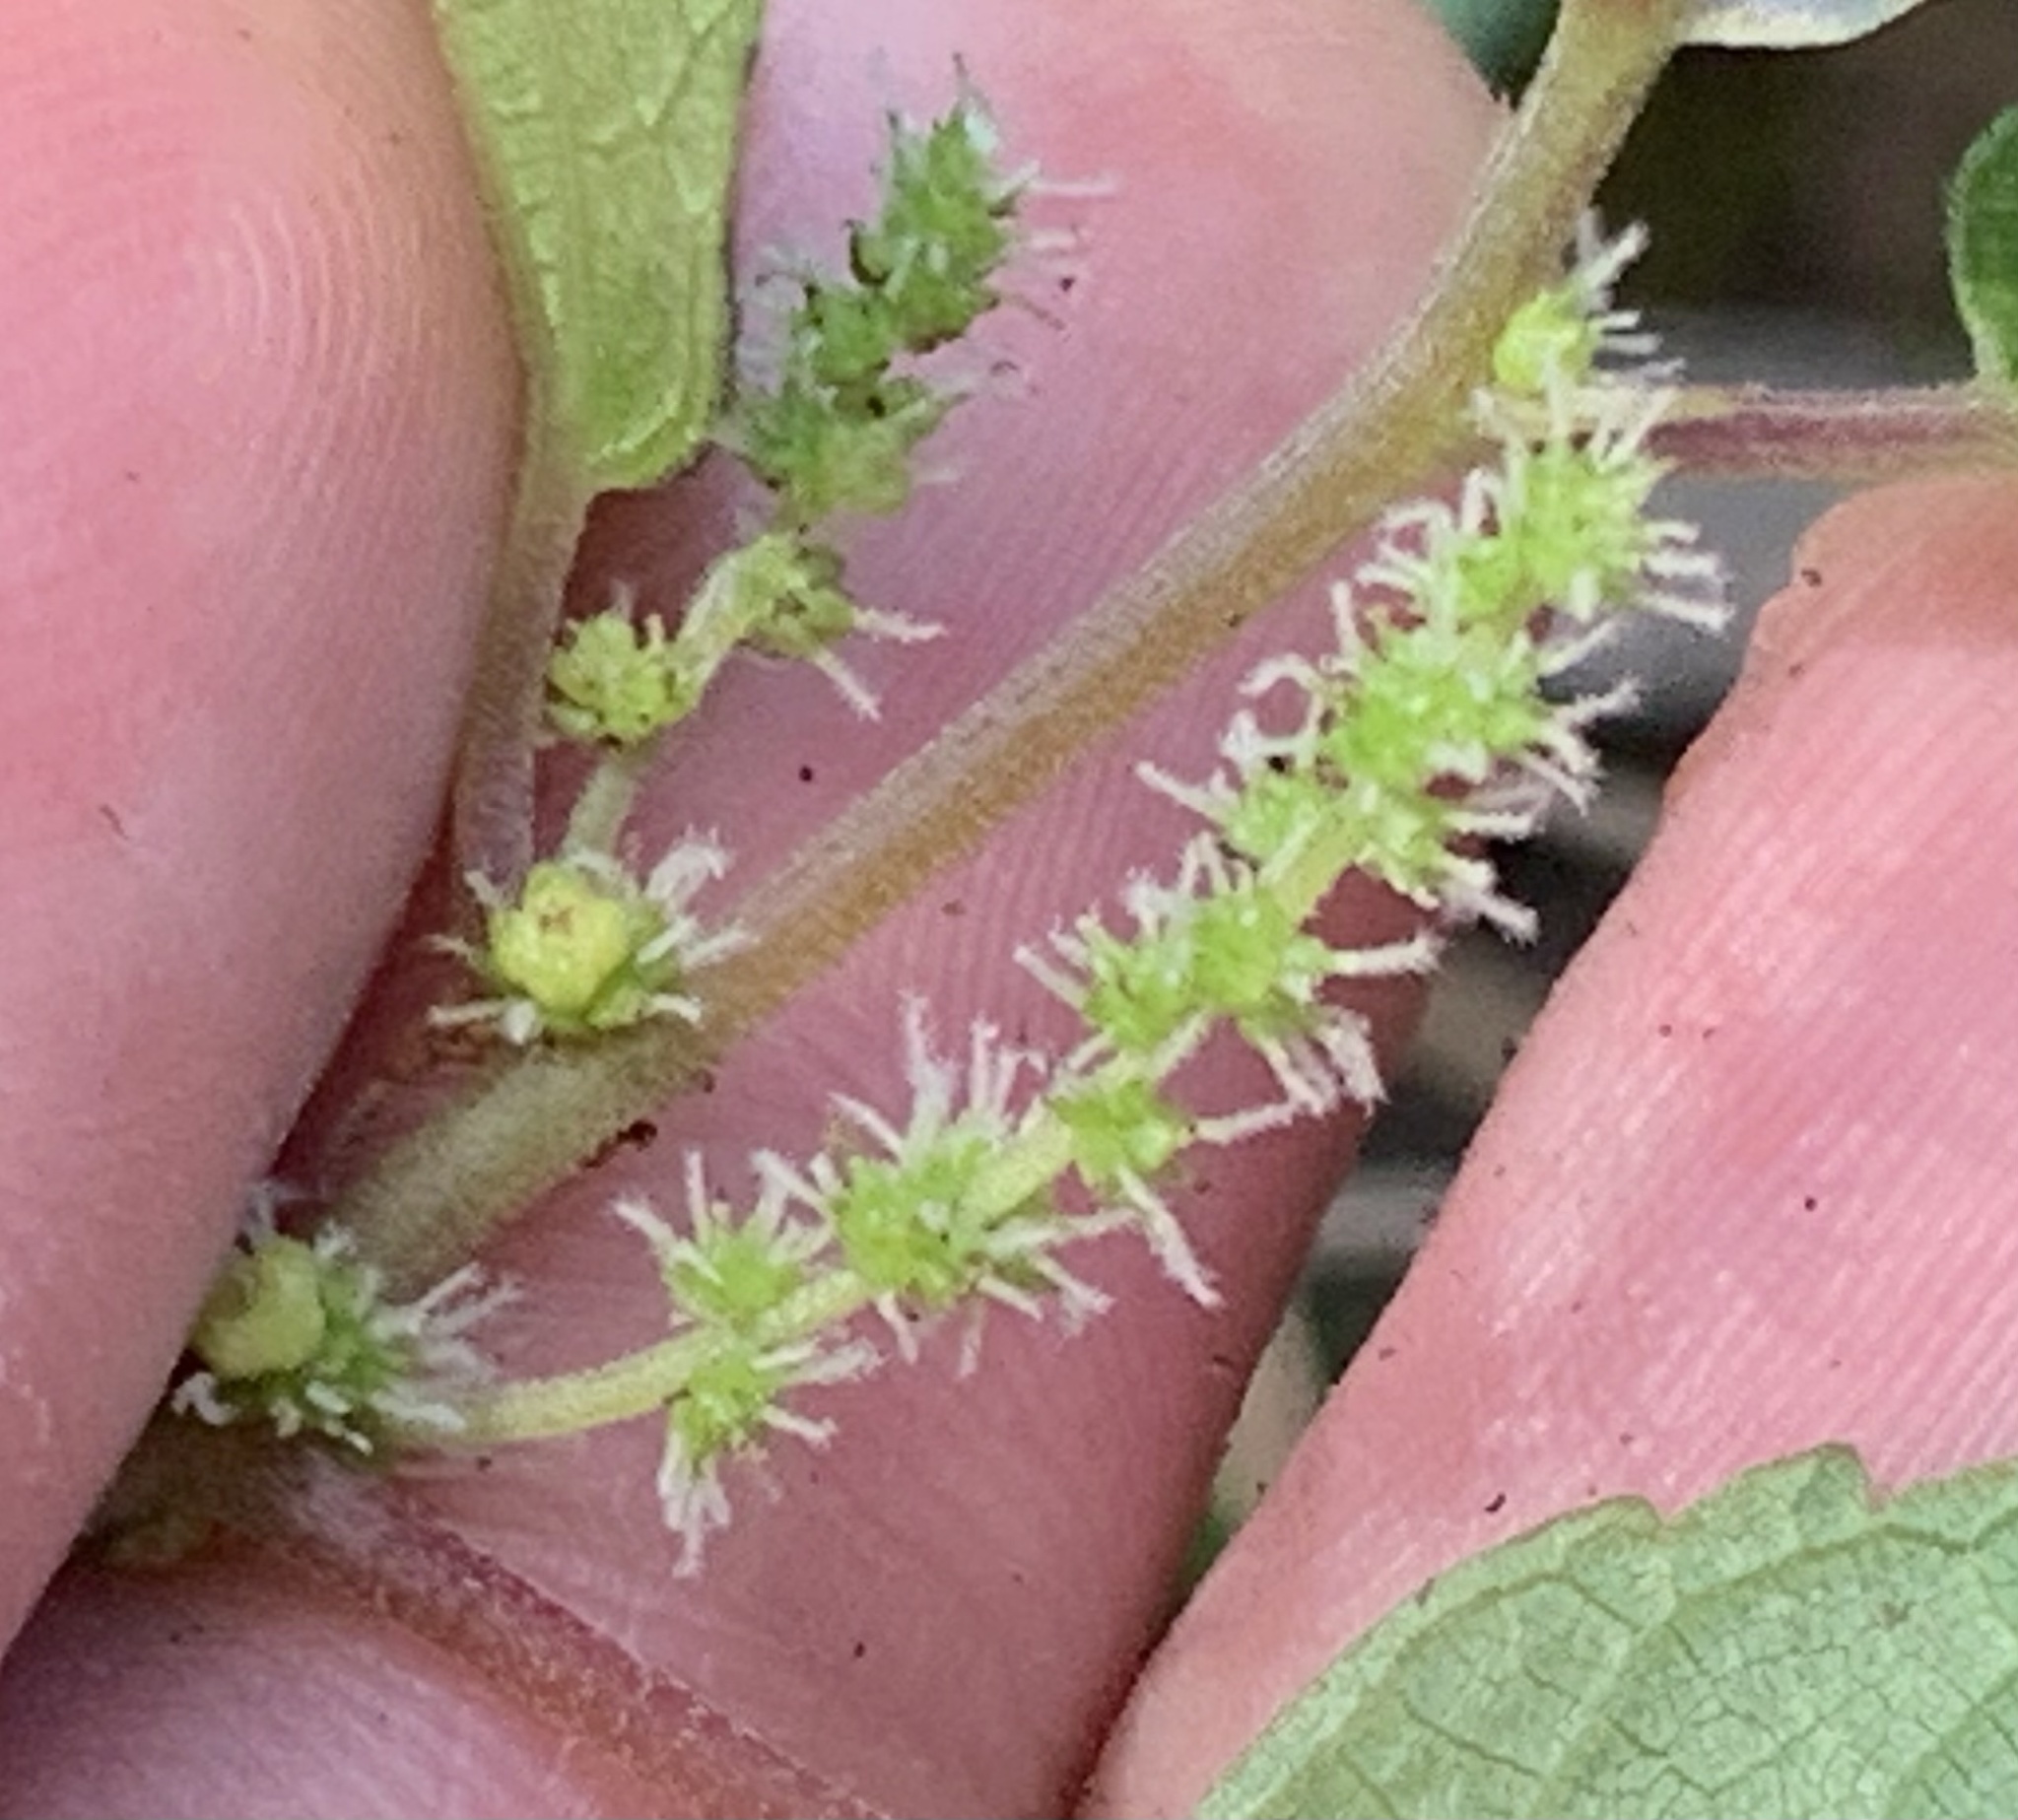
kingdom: Plantae
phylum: Tracheophyta
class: Magnoliopsida
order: Rosales
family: Urticaceae
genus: Boehmeria
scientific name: Boehmeria cylindrica
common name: Bog-hemp
